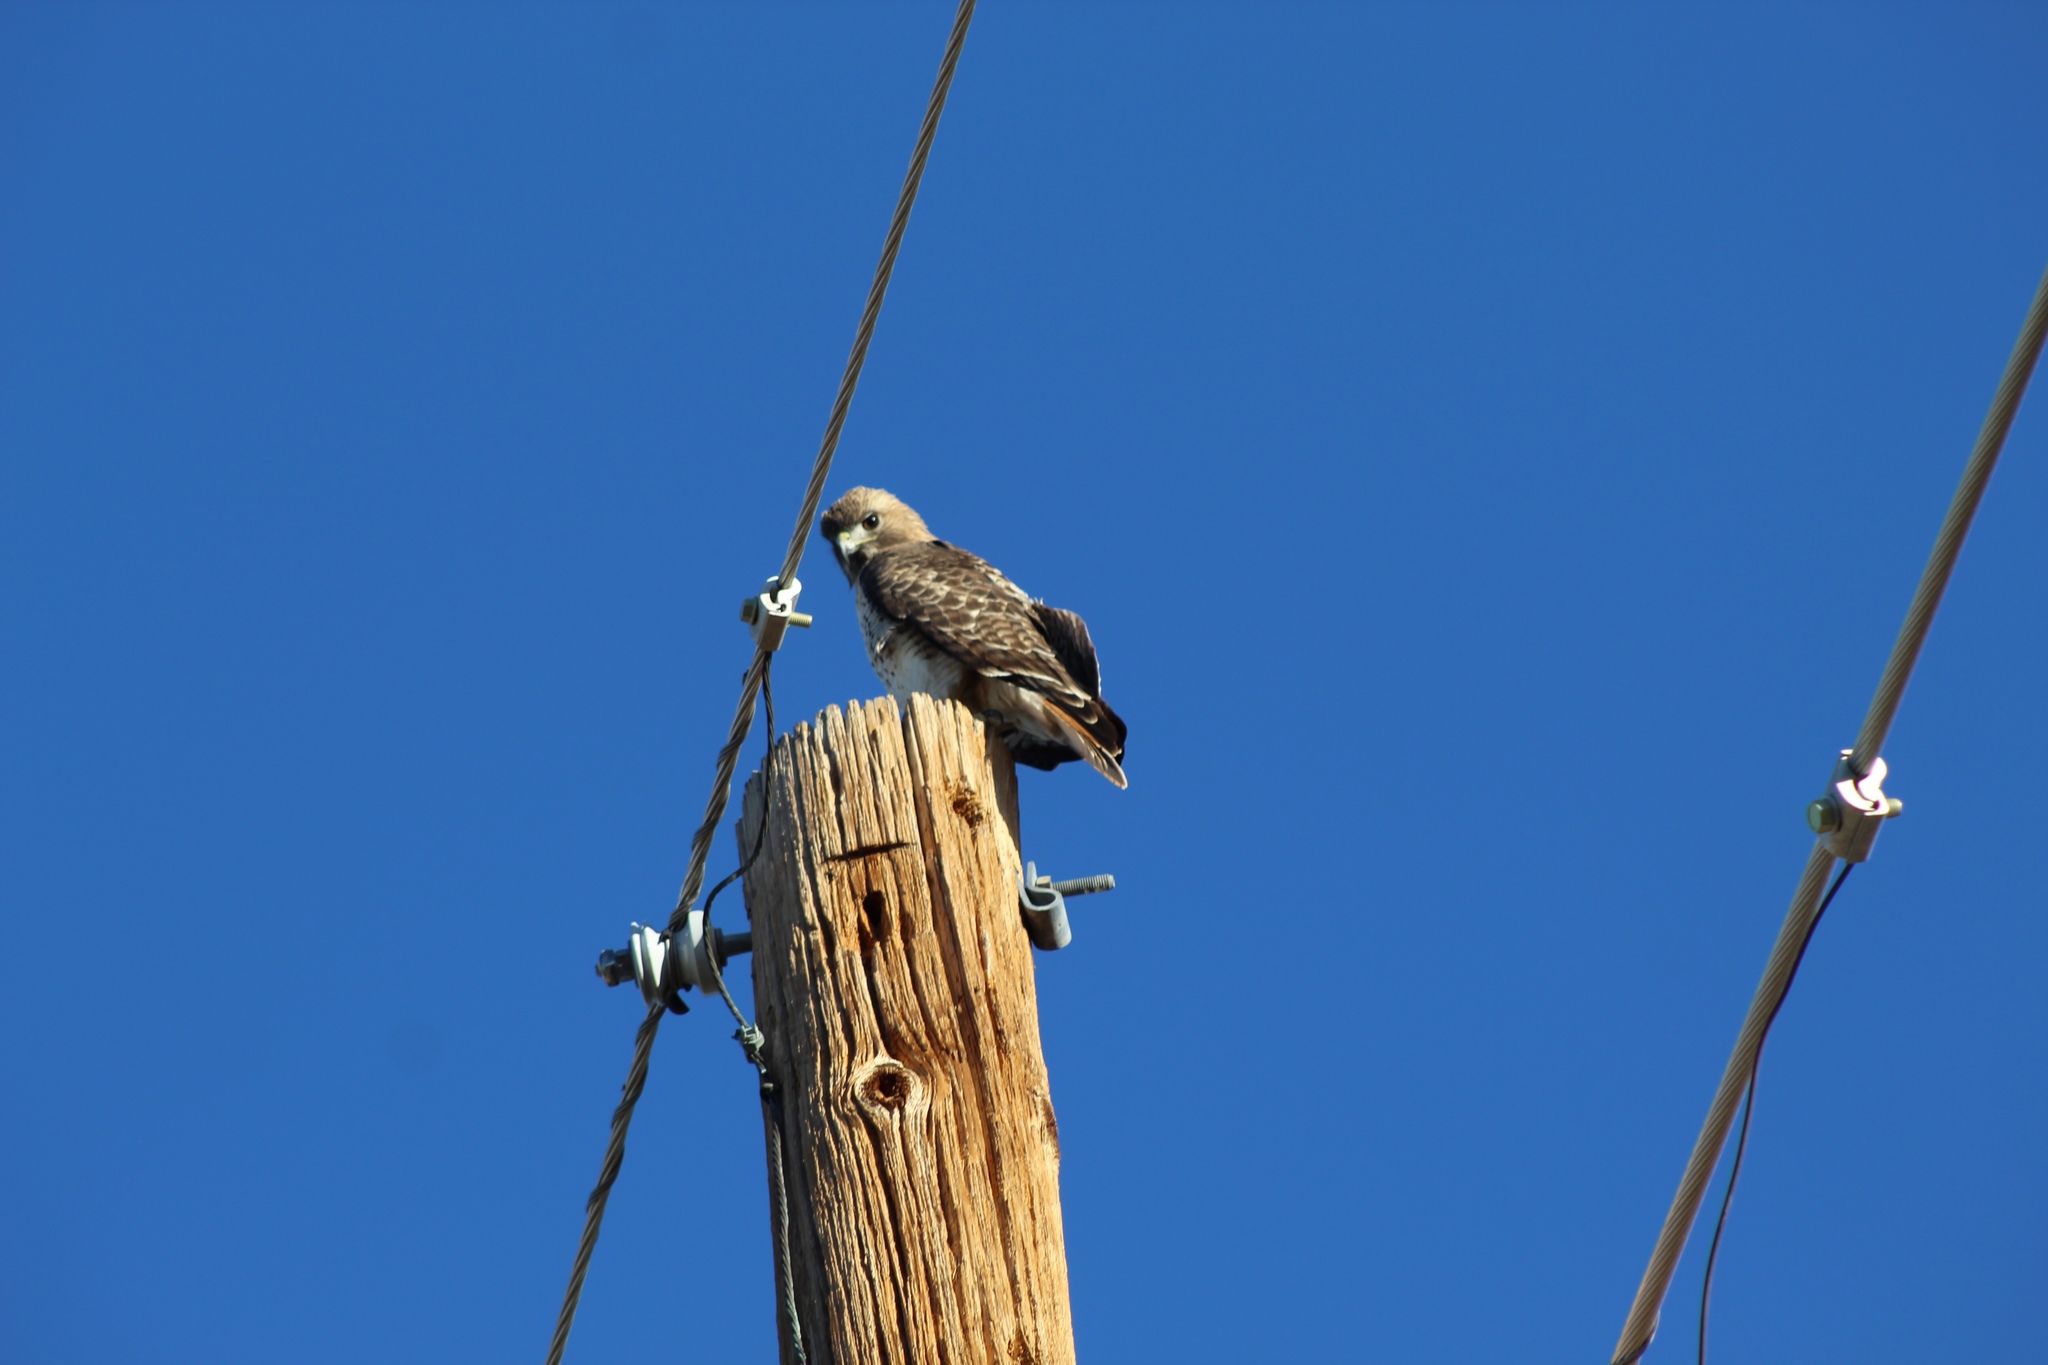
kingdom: Animalia
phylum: Chordata
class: Aves
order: Accipitriformes
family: Accipitridae
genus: Buteo
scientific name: Buteo jamaicensis
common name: Red-tailed hawk
